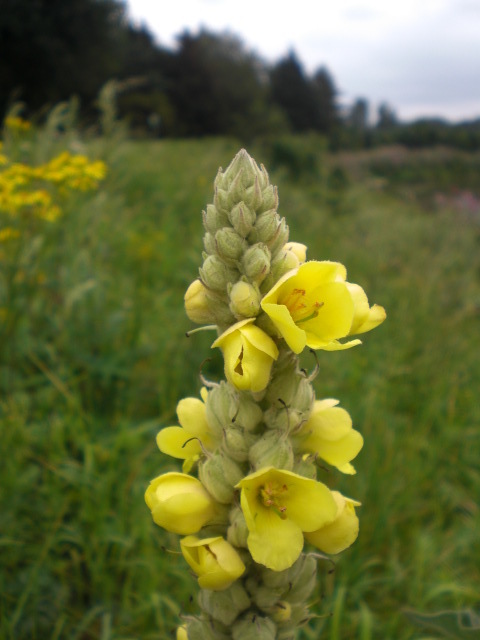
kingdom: Plantae
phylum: Tracheophyta
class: Magnoliopsida
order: Lamiales
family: Scrophulariaceae
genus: Verbascum
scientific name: Verbascum thapsus
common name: Common mullein
